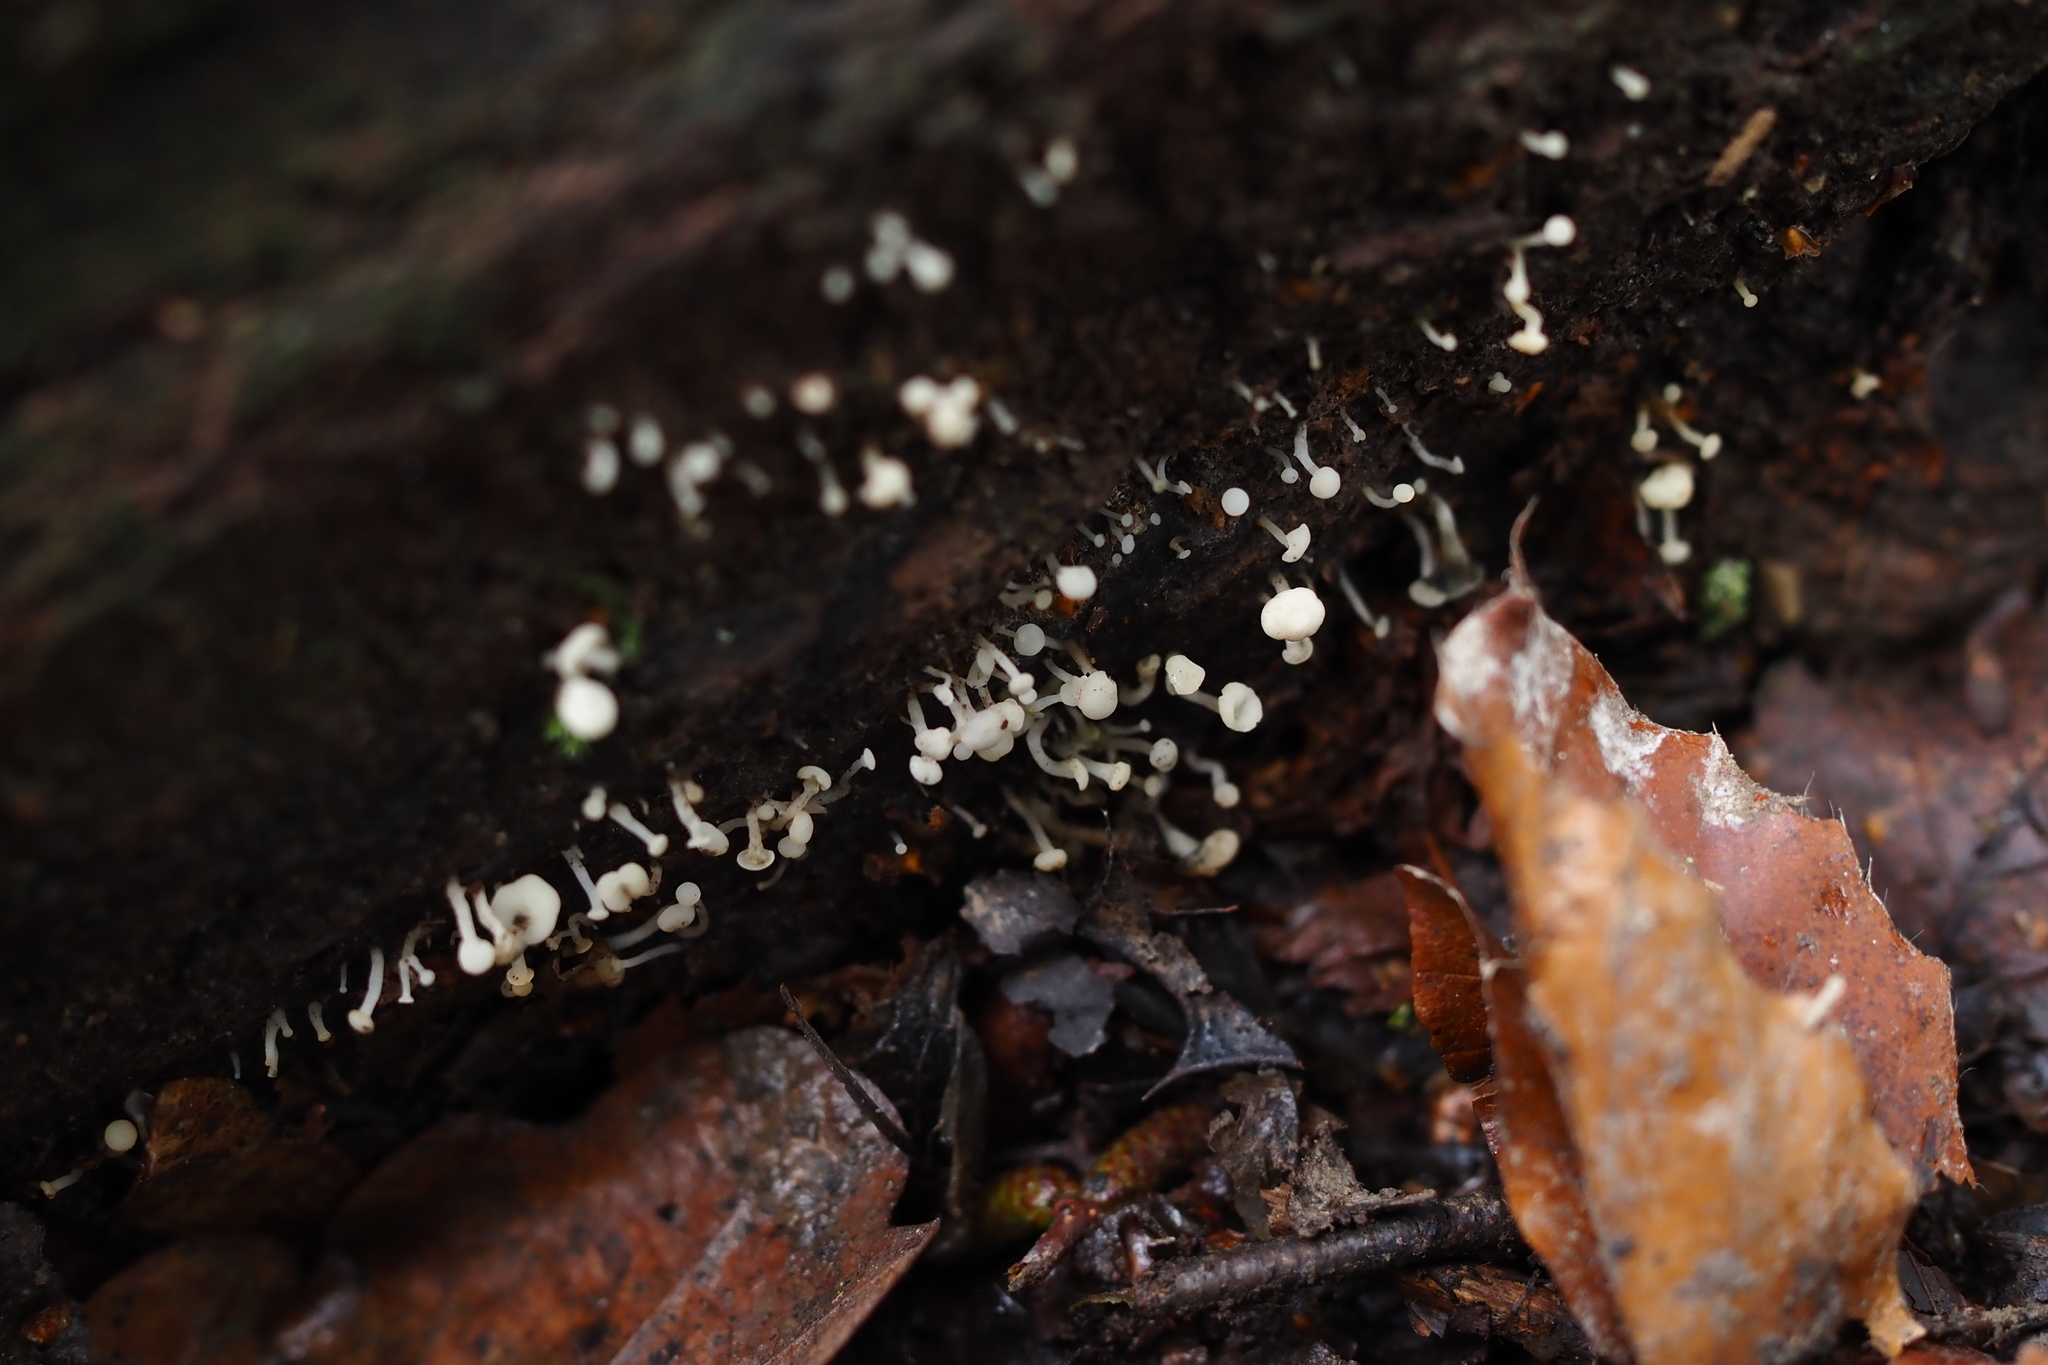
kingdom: Fungi
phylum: Ascomycota
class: Leotiomycetes
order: Helotiales
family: Tricladiaceae
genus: Cudoniella
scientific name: Cudoniella acicularis
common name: Oak pin
